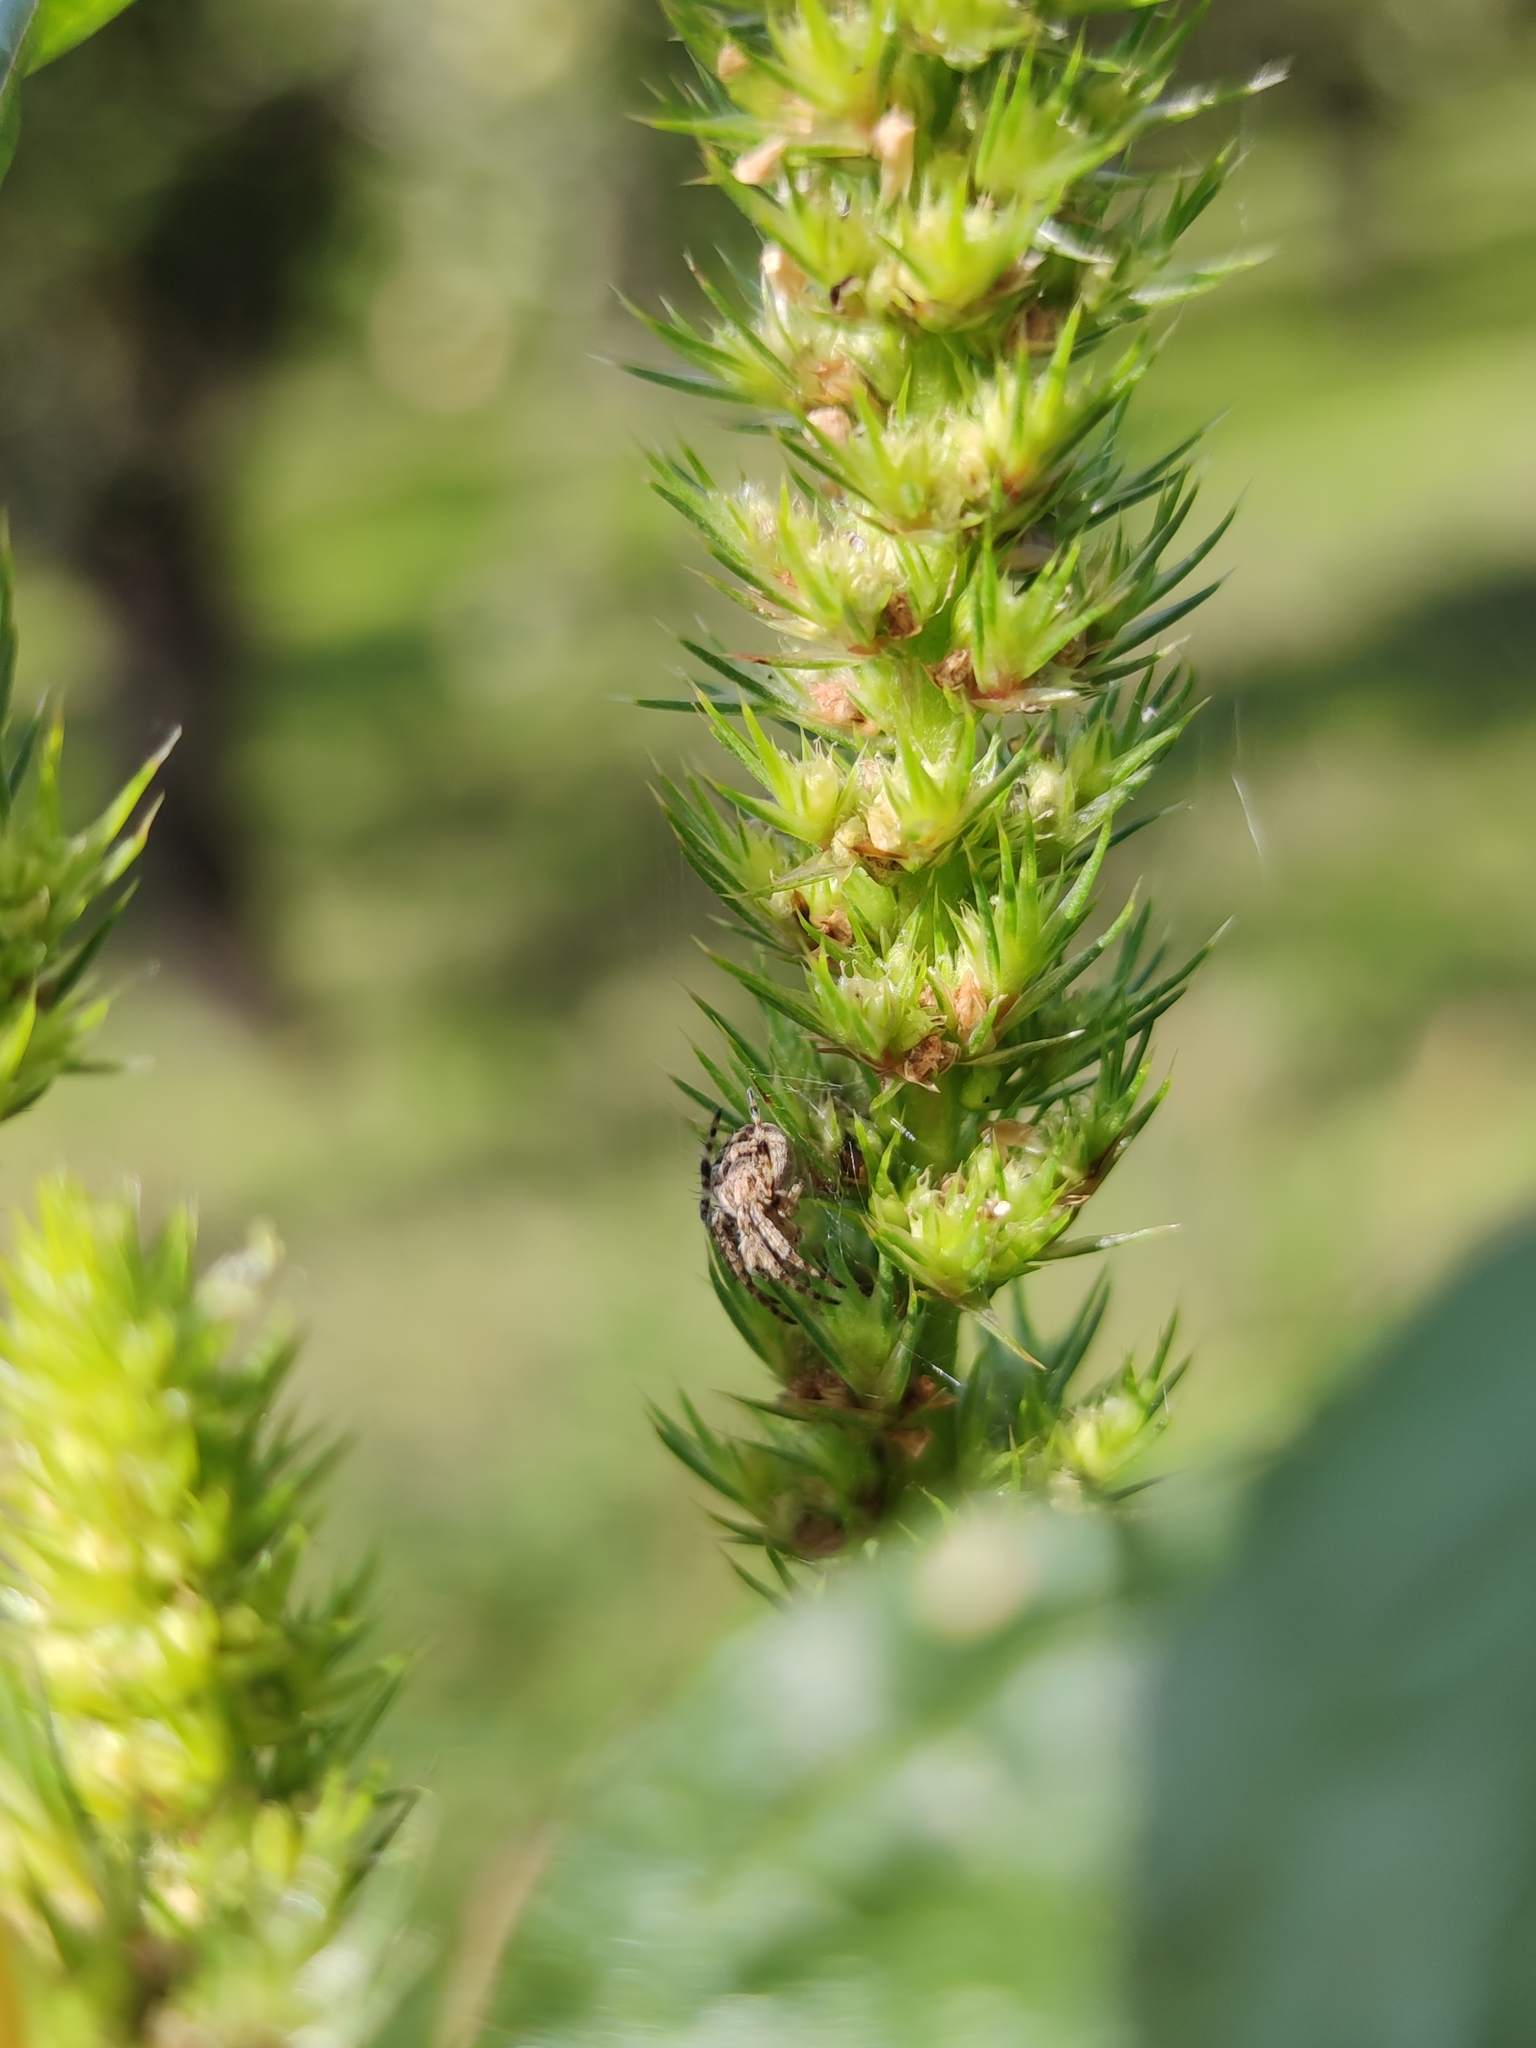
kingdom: Animalia
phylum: Arthropoda
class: Arachnida
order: Araneae
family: Araneidae
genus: Agalenatea
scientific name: Agalenatea redii
